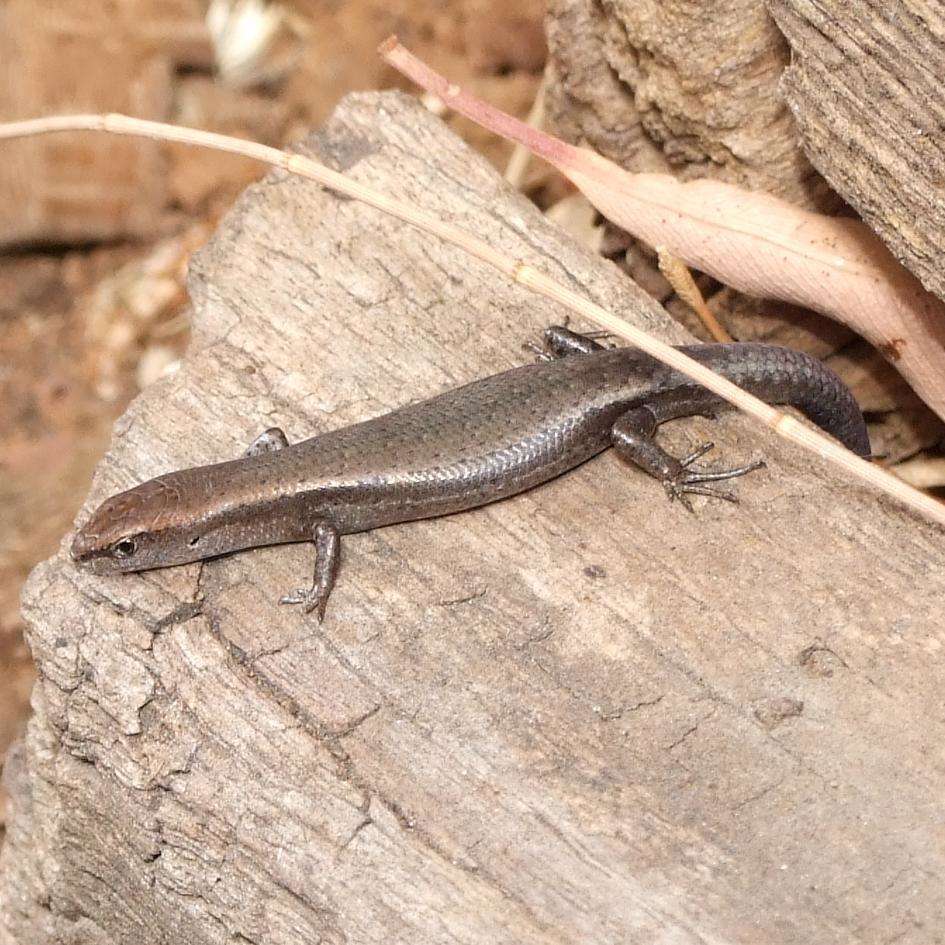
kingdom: Animalia
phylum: Chordata
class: Squamata
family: Scincidae
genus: Lampropholis
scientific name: Lampropholis delicata
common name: Plague skink
